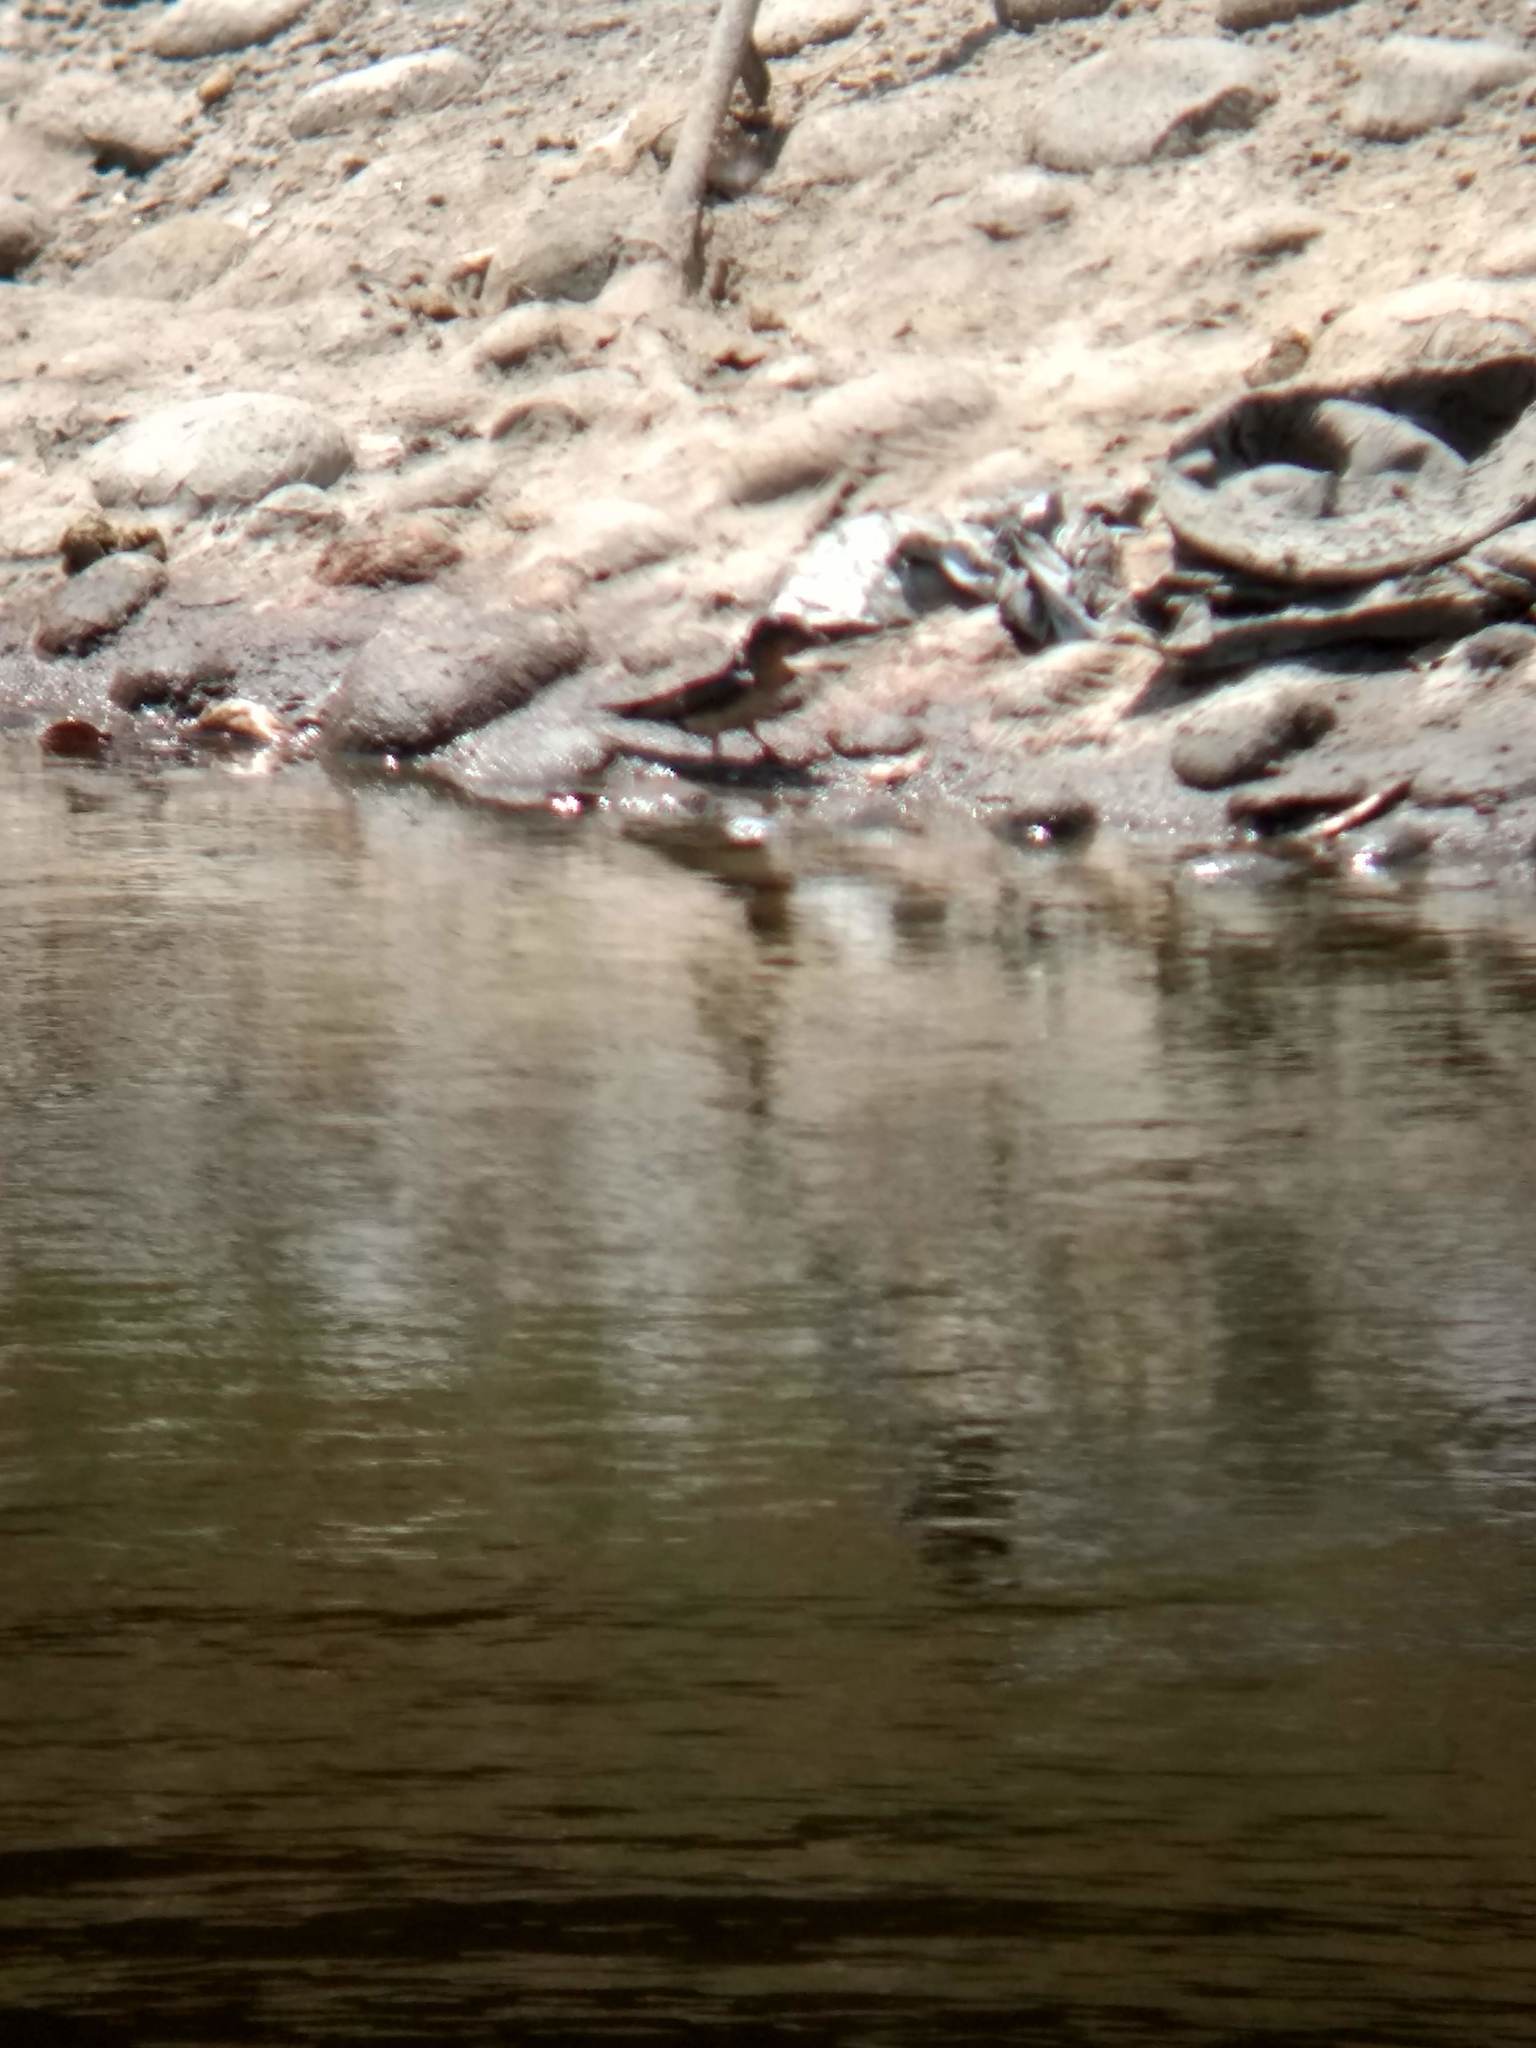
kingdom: Animalia
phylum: Chordata
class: Aves
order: Passeriformes
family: Hirundinidae
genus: Hirundo
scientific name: Hirundo rustica
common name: Barn swallow
